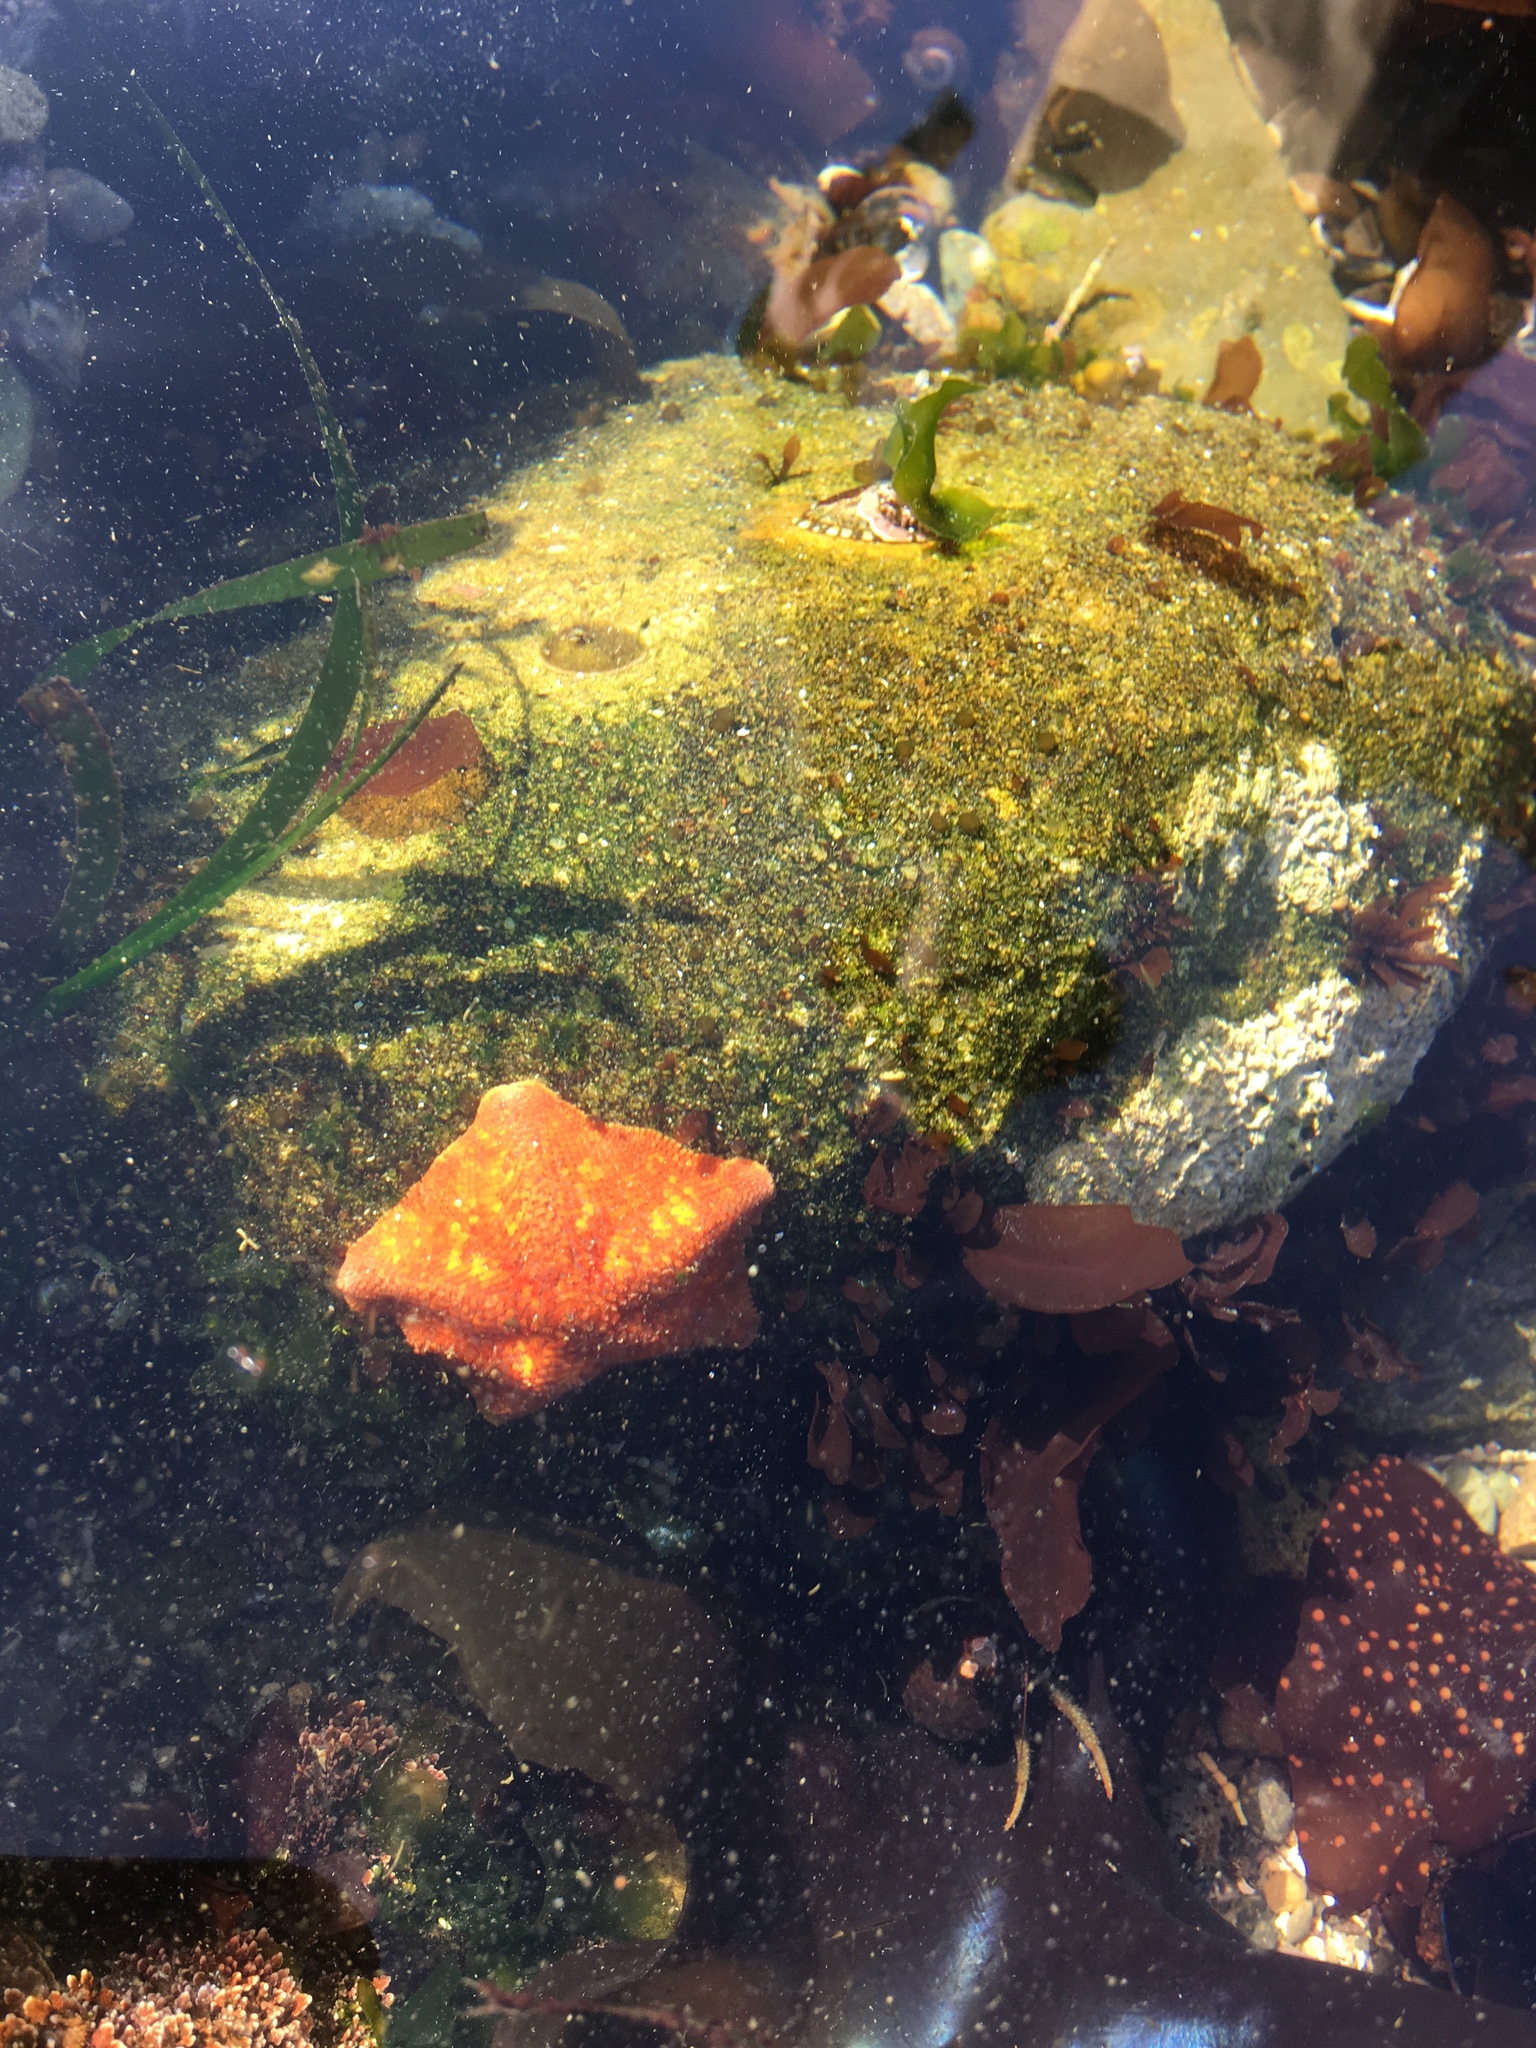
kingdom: Animalia
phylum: Echinodermata
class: Asteroidea
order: Valvatida
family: Asterinidae
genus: Patiria
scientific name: Patiria miniata
